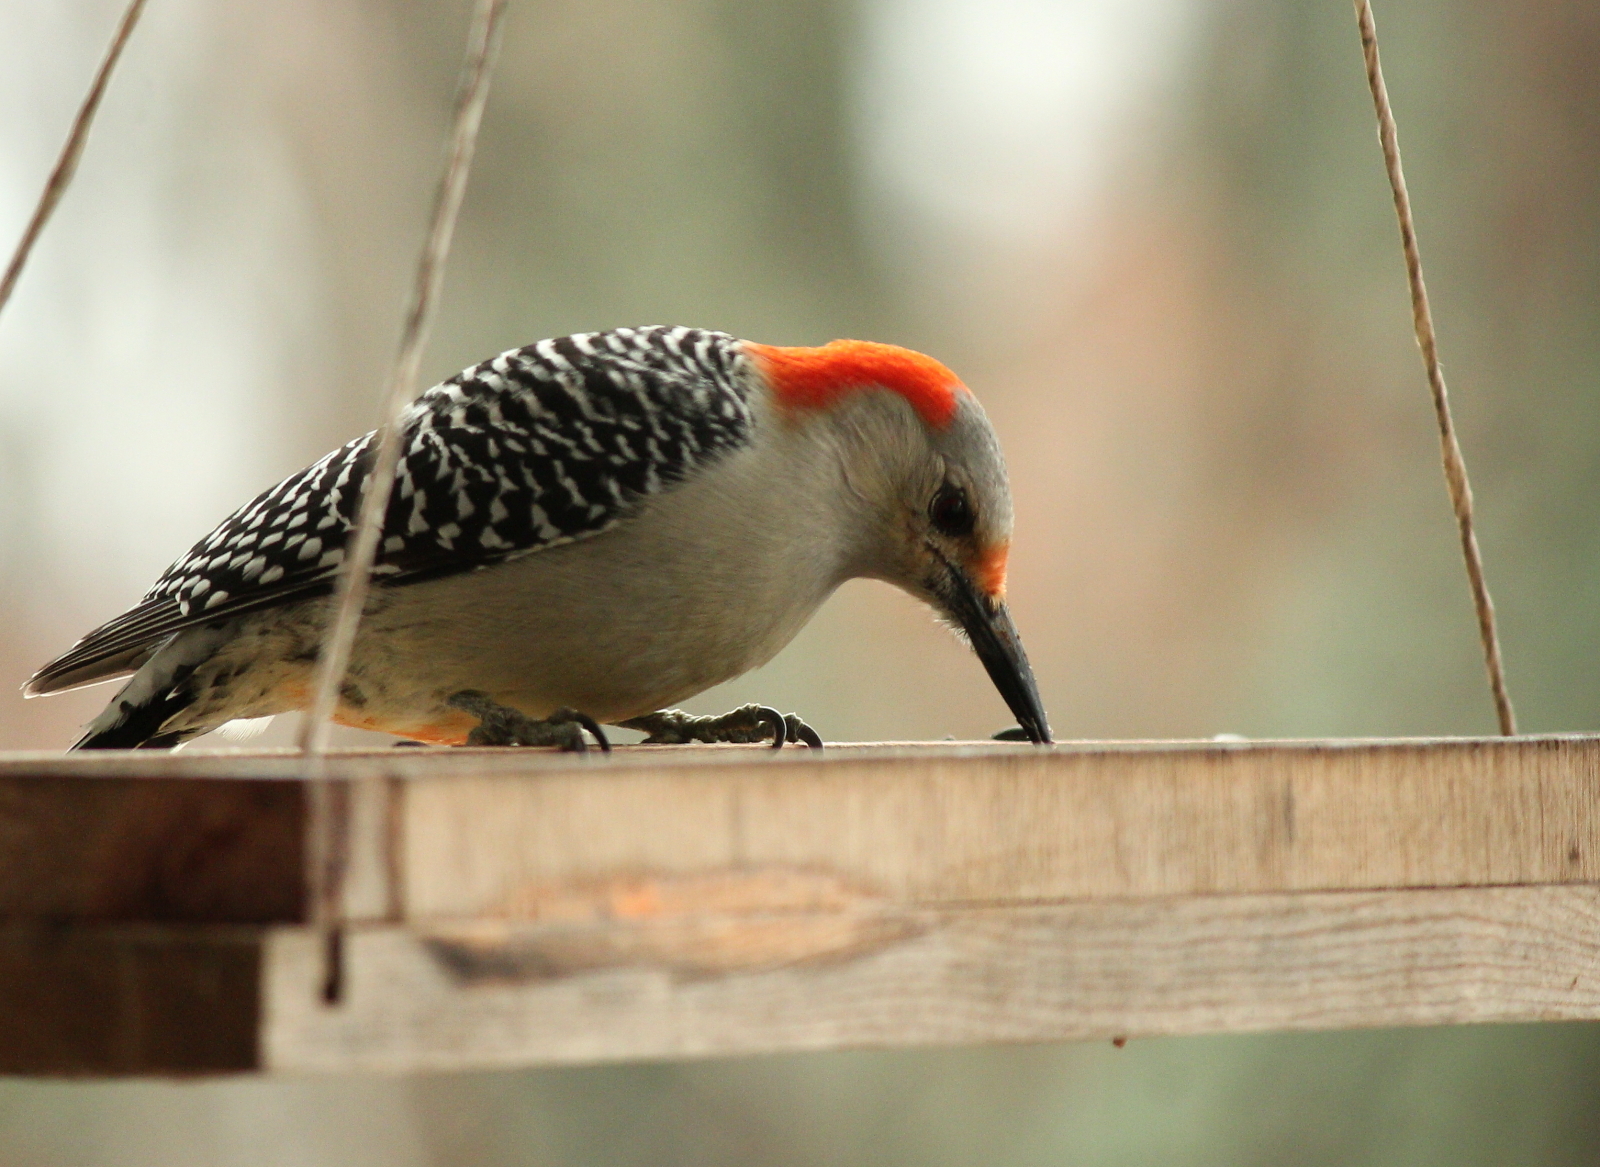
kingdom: Animalia
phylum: Chordata
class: Aves
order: Piciformes
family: Picidae
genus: Melanerpes
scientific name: Melanerpes carolinus
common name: Red-bellied woodpecker
